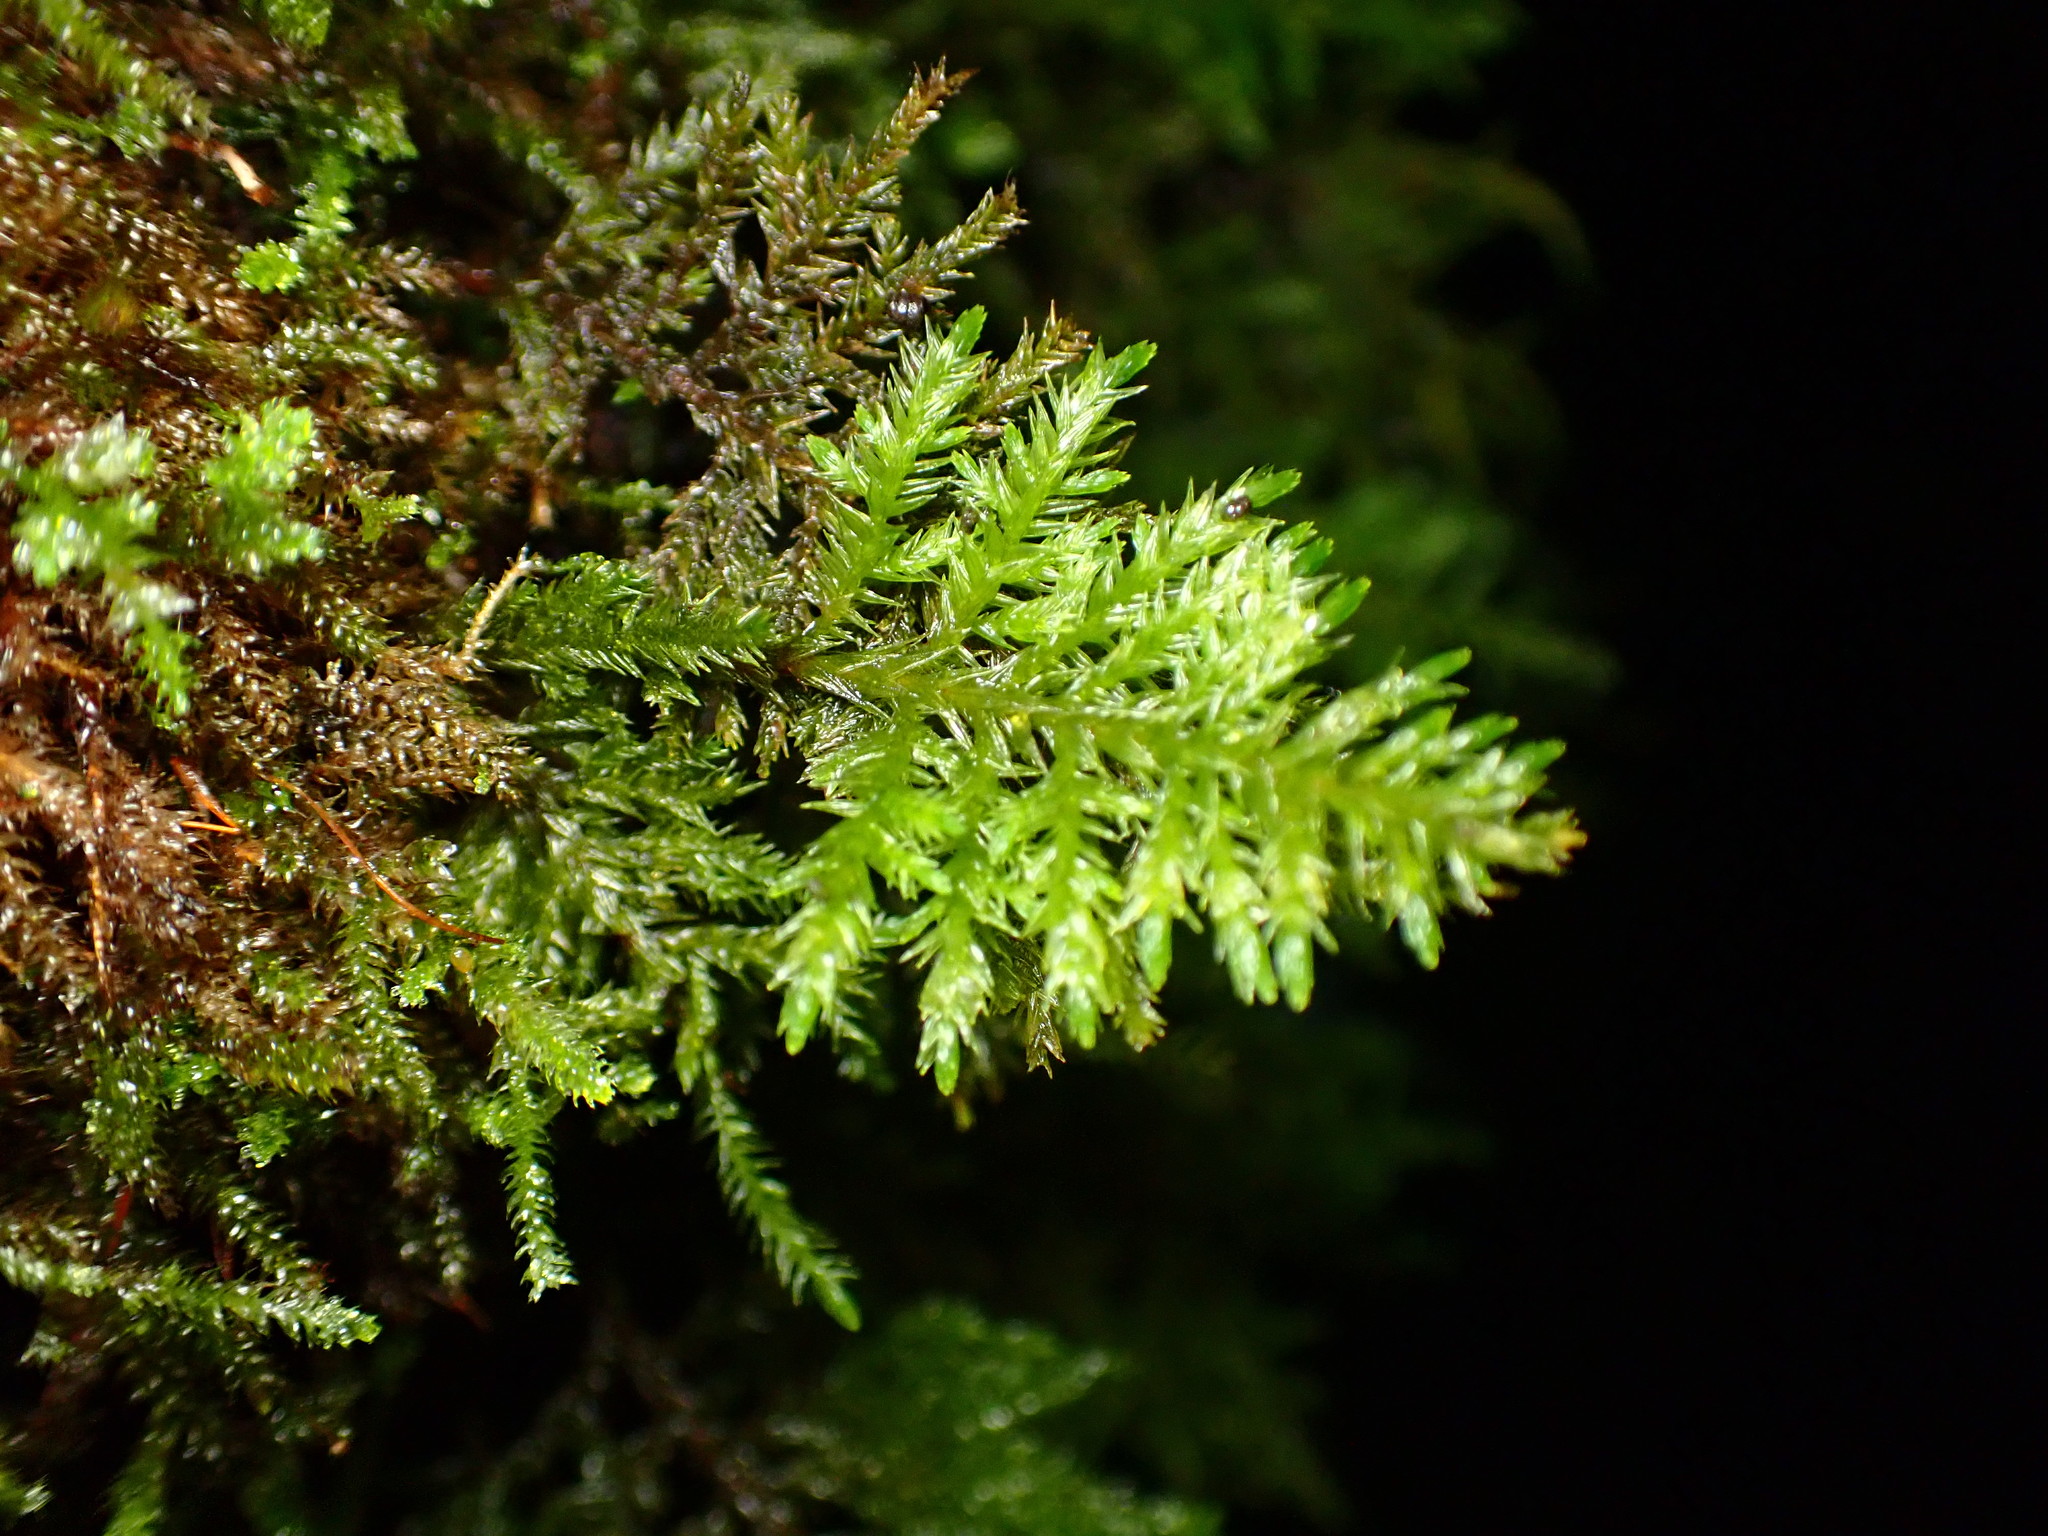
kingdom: Plantae
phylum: Bryophyta
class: Bryopsida
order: Hypnales
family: Cryphaeaceae
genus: Dendroalsia
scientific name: Dendroalsia abietina
